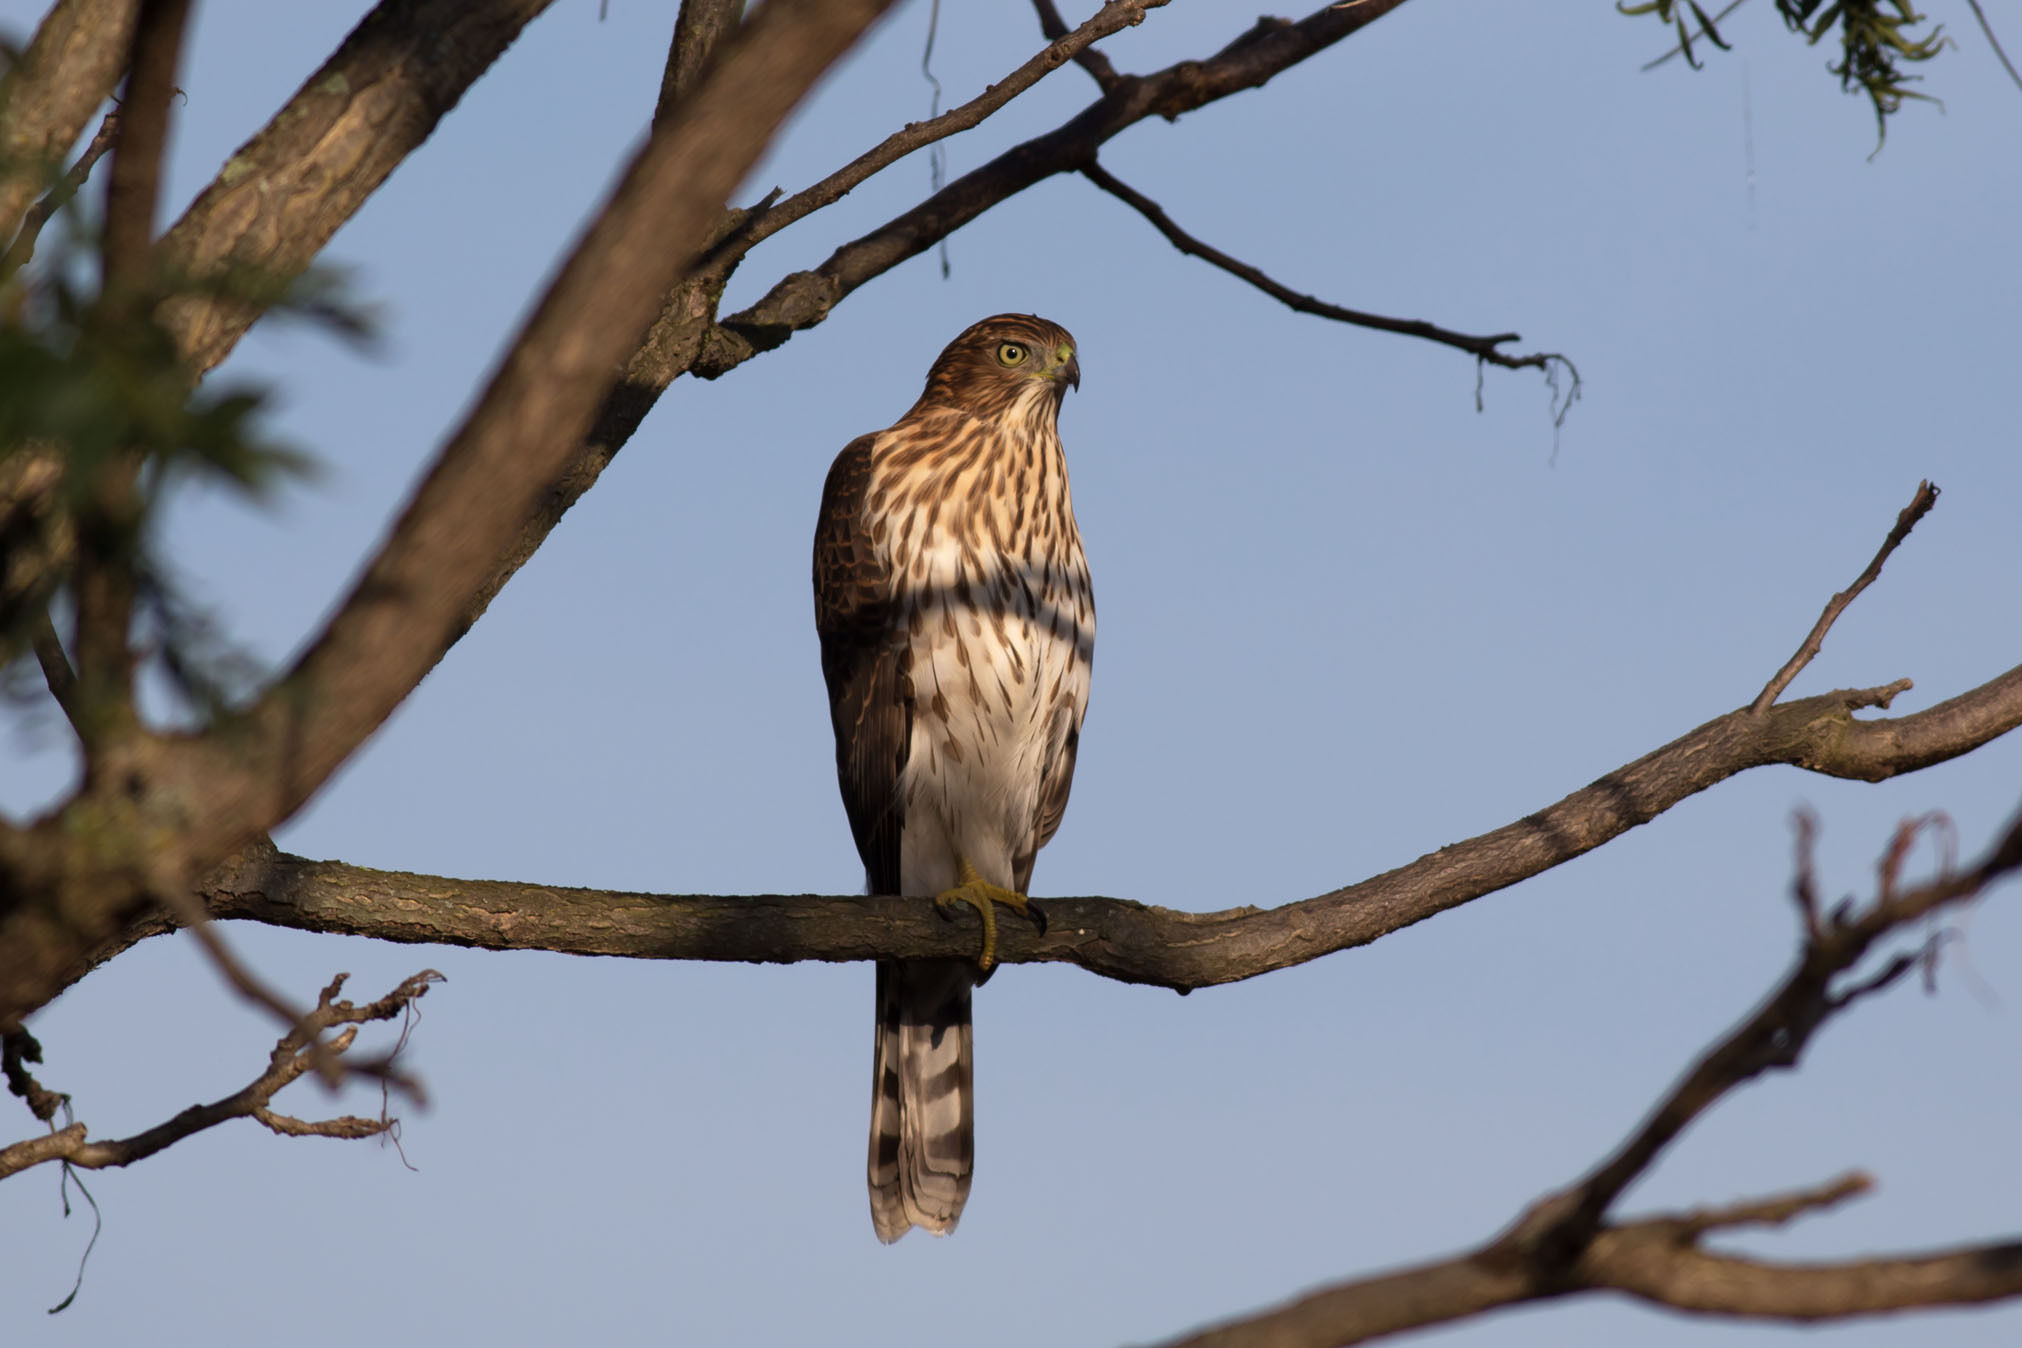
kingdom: Animalia
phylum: Chordata
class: Aves
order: Accipitriformes
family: Accipitridae
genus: Accipiter
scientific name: Accipiter cooperii
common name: Cooper's hawk
